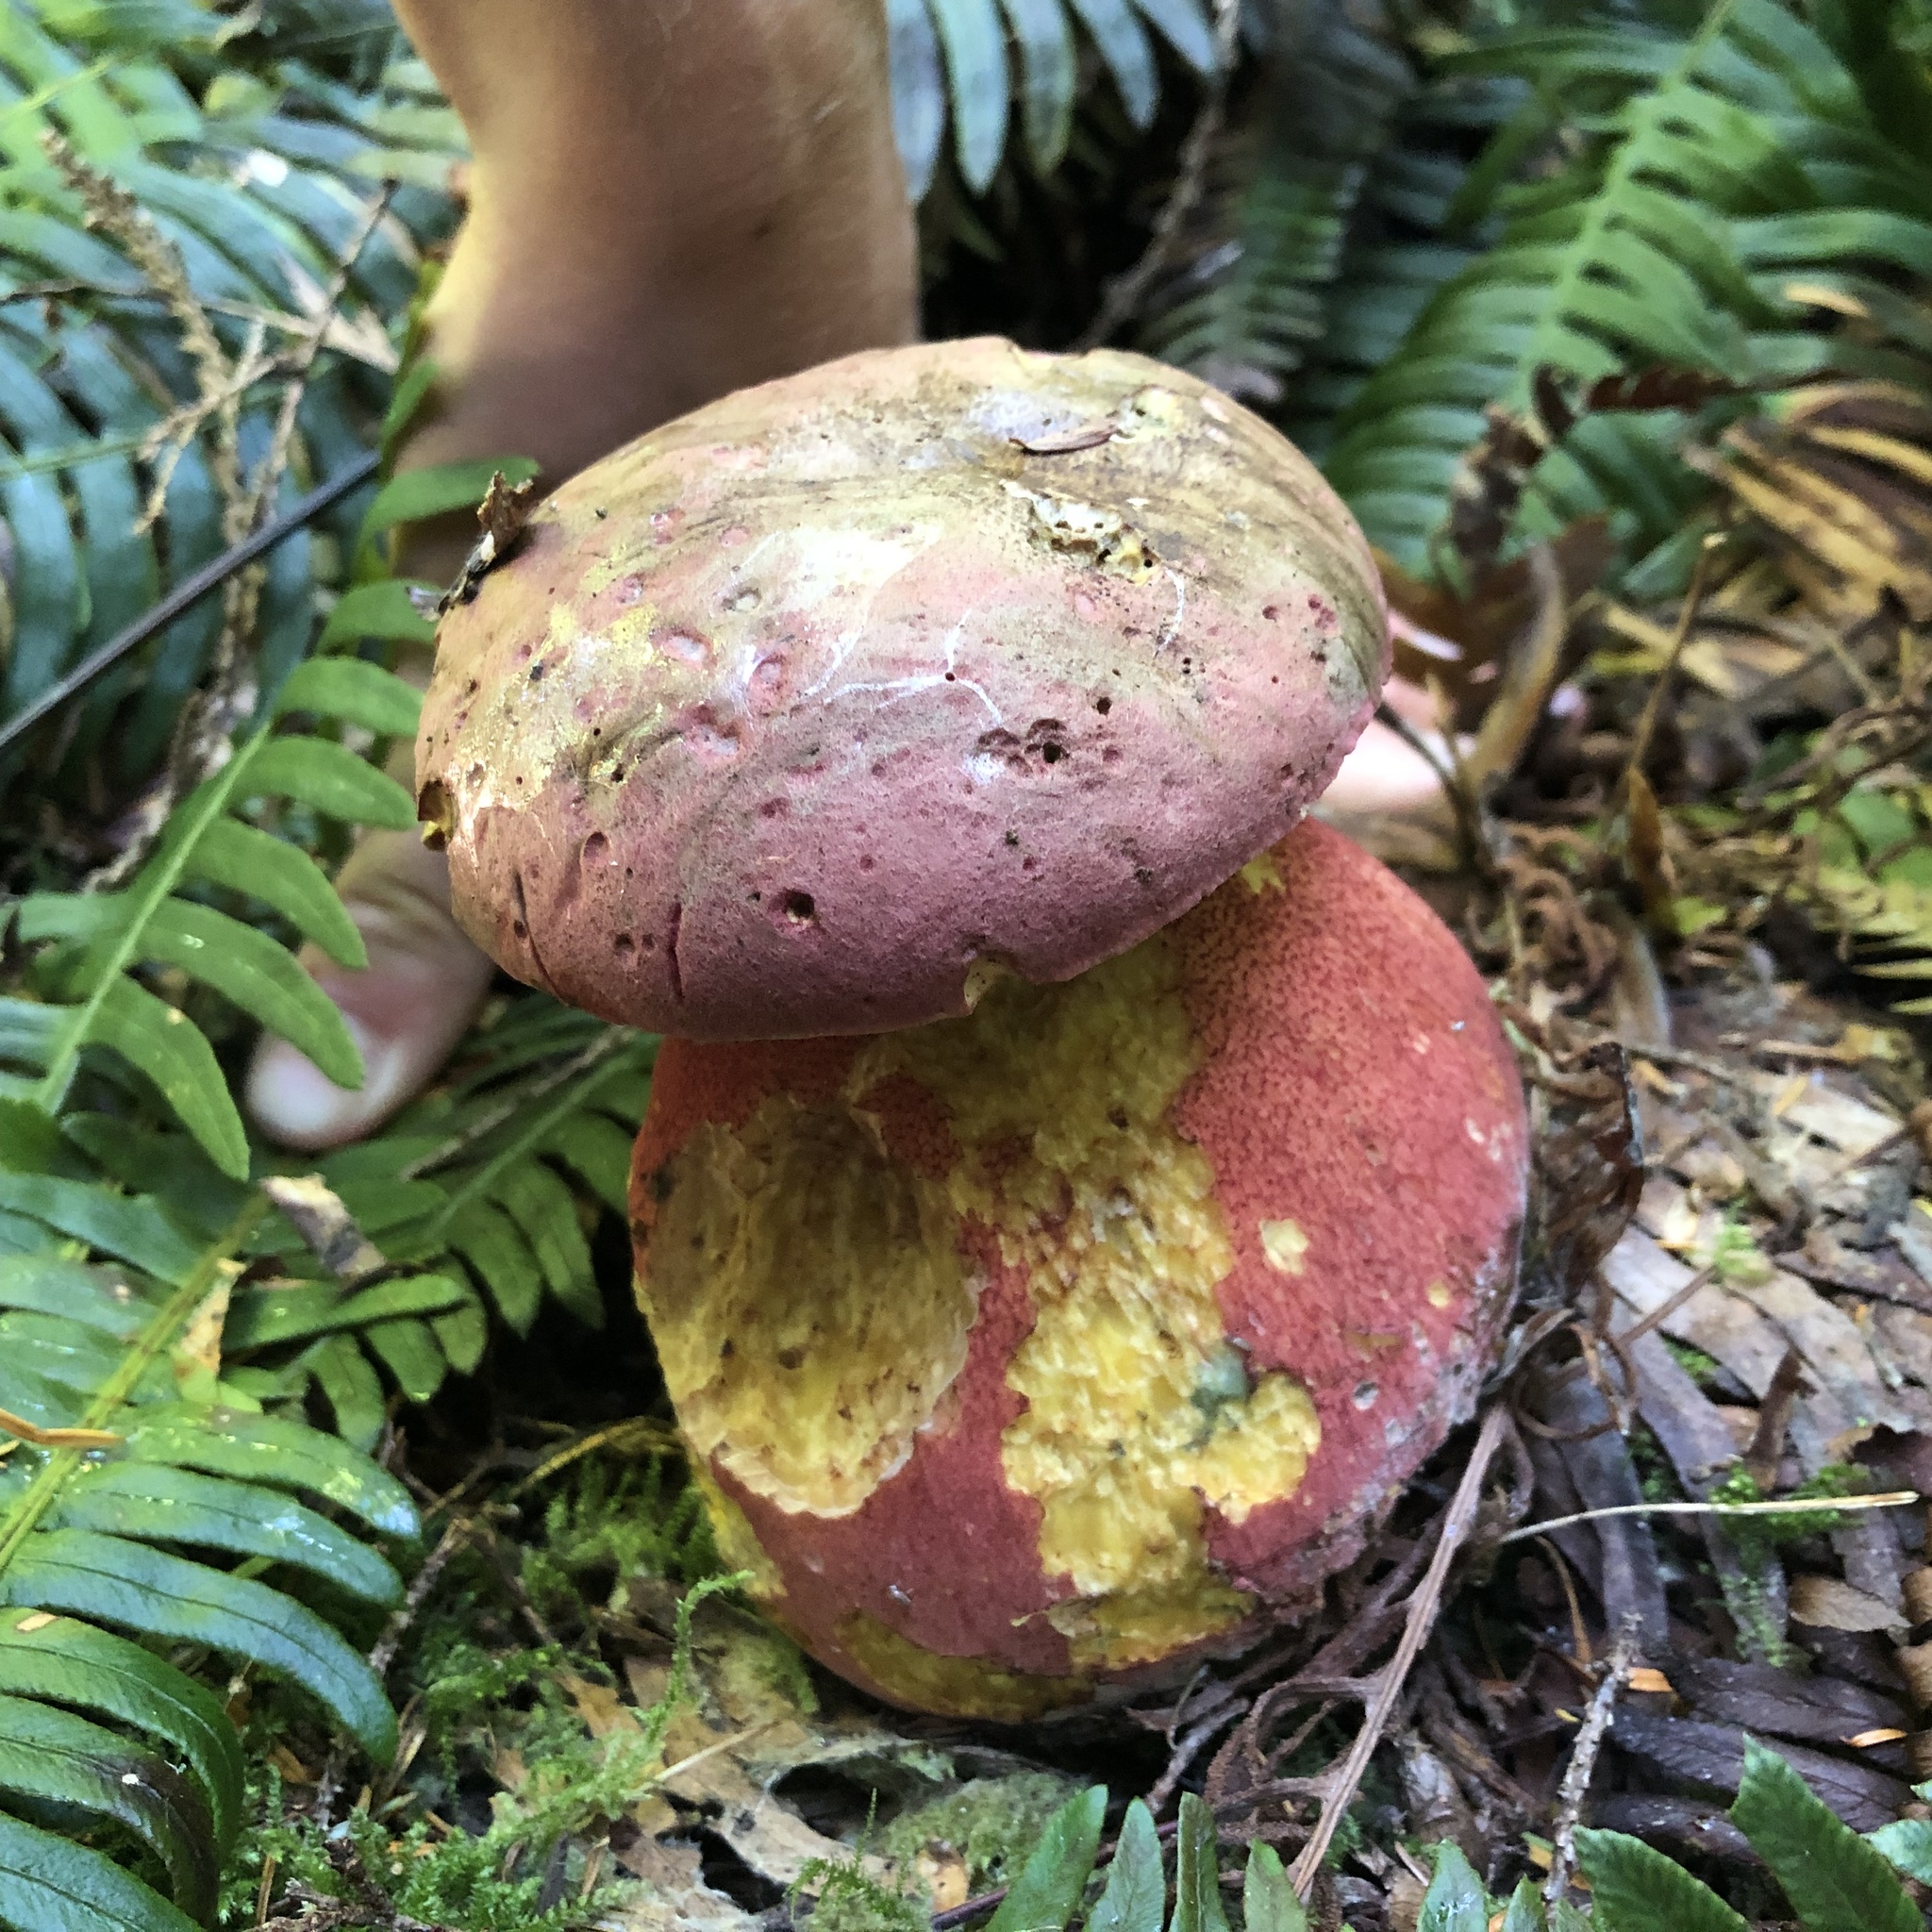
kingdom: Fungi
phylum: Basidiomycota
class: Agaricomycetes
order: Boletales
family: Boletaceae
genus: Rubroboletus
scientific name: Rubroboletus pulcherrimus
